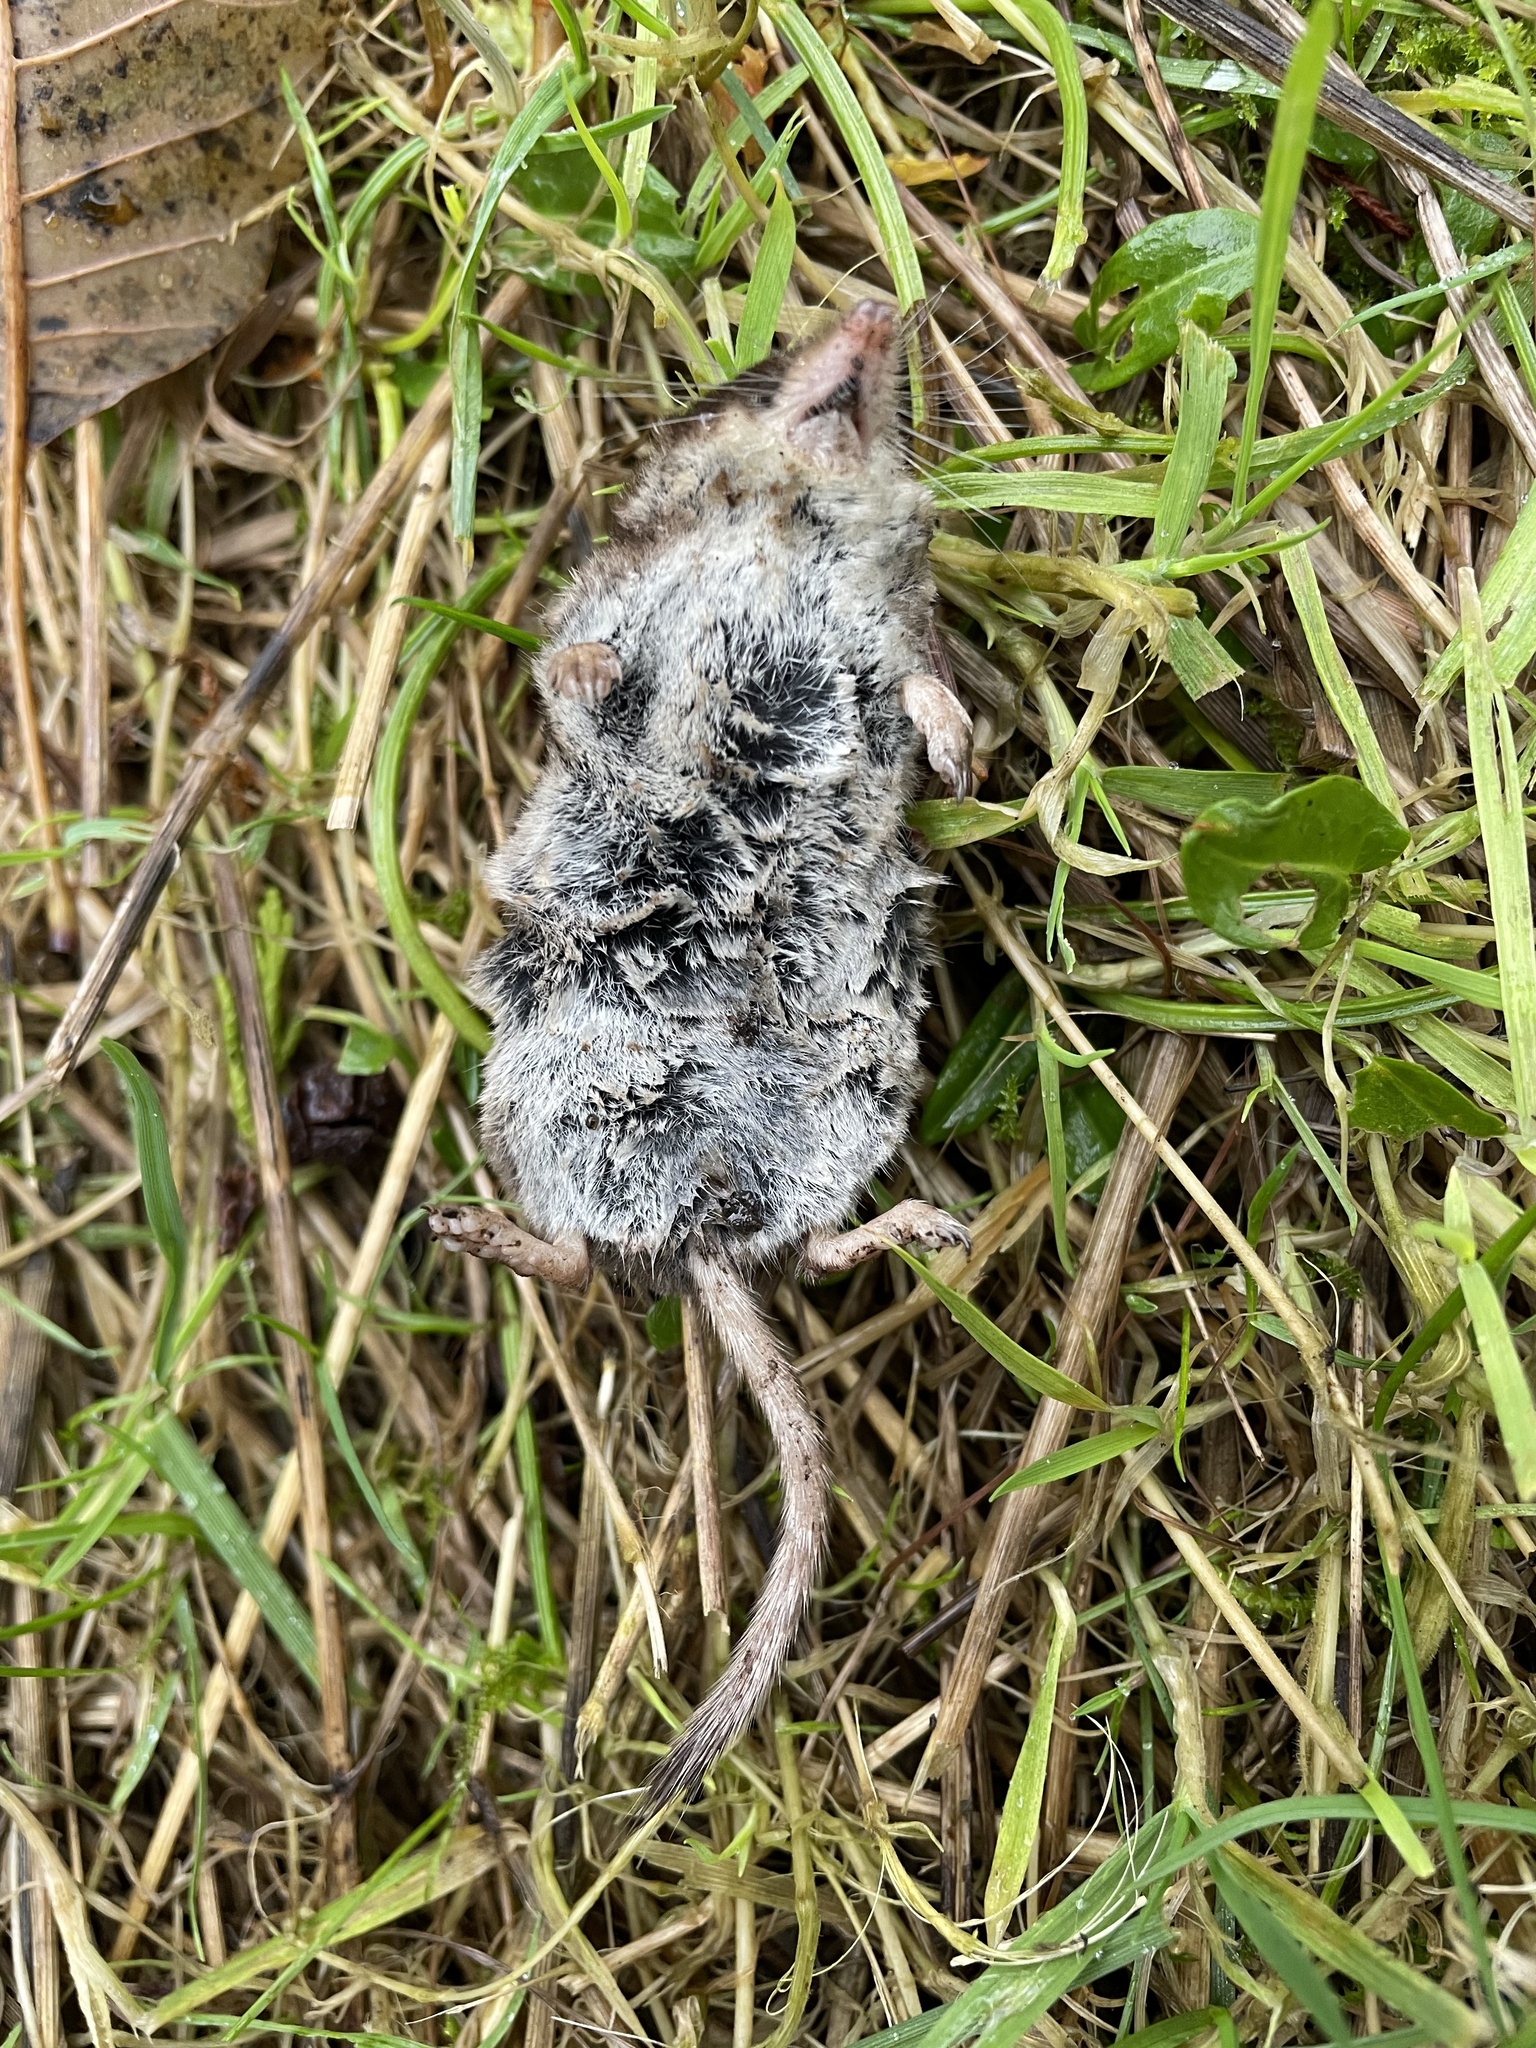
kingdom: Animalia
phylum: Chordata
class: Mammalia
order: Soricomorpha
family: Soricidae
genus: Neomys
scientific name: Neomys fodiens
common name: Eurasian water shrew
